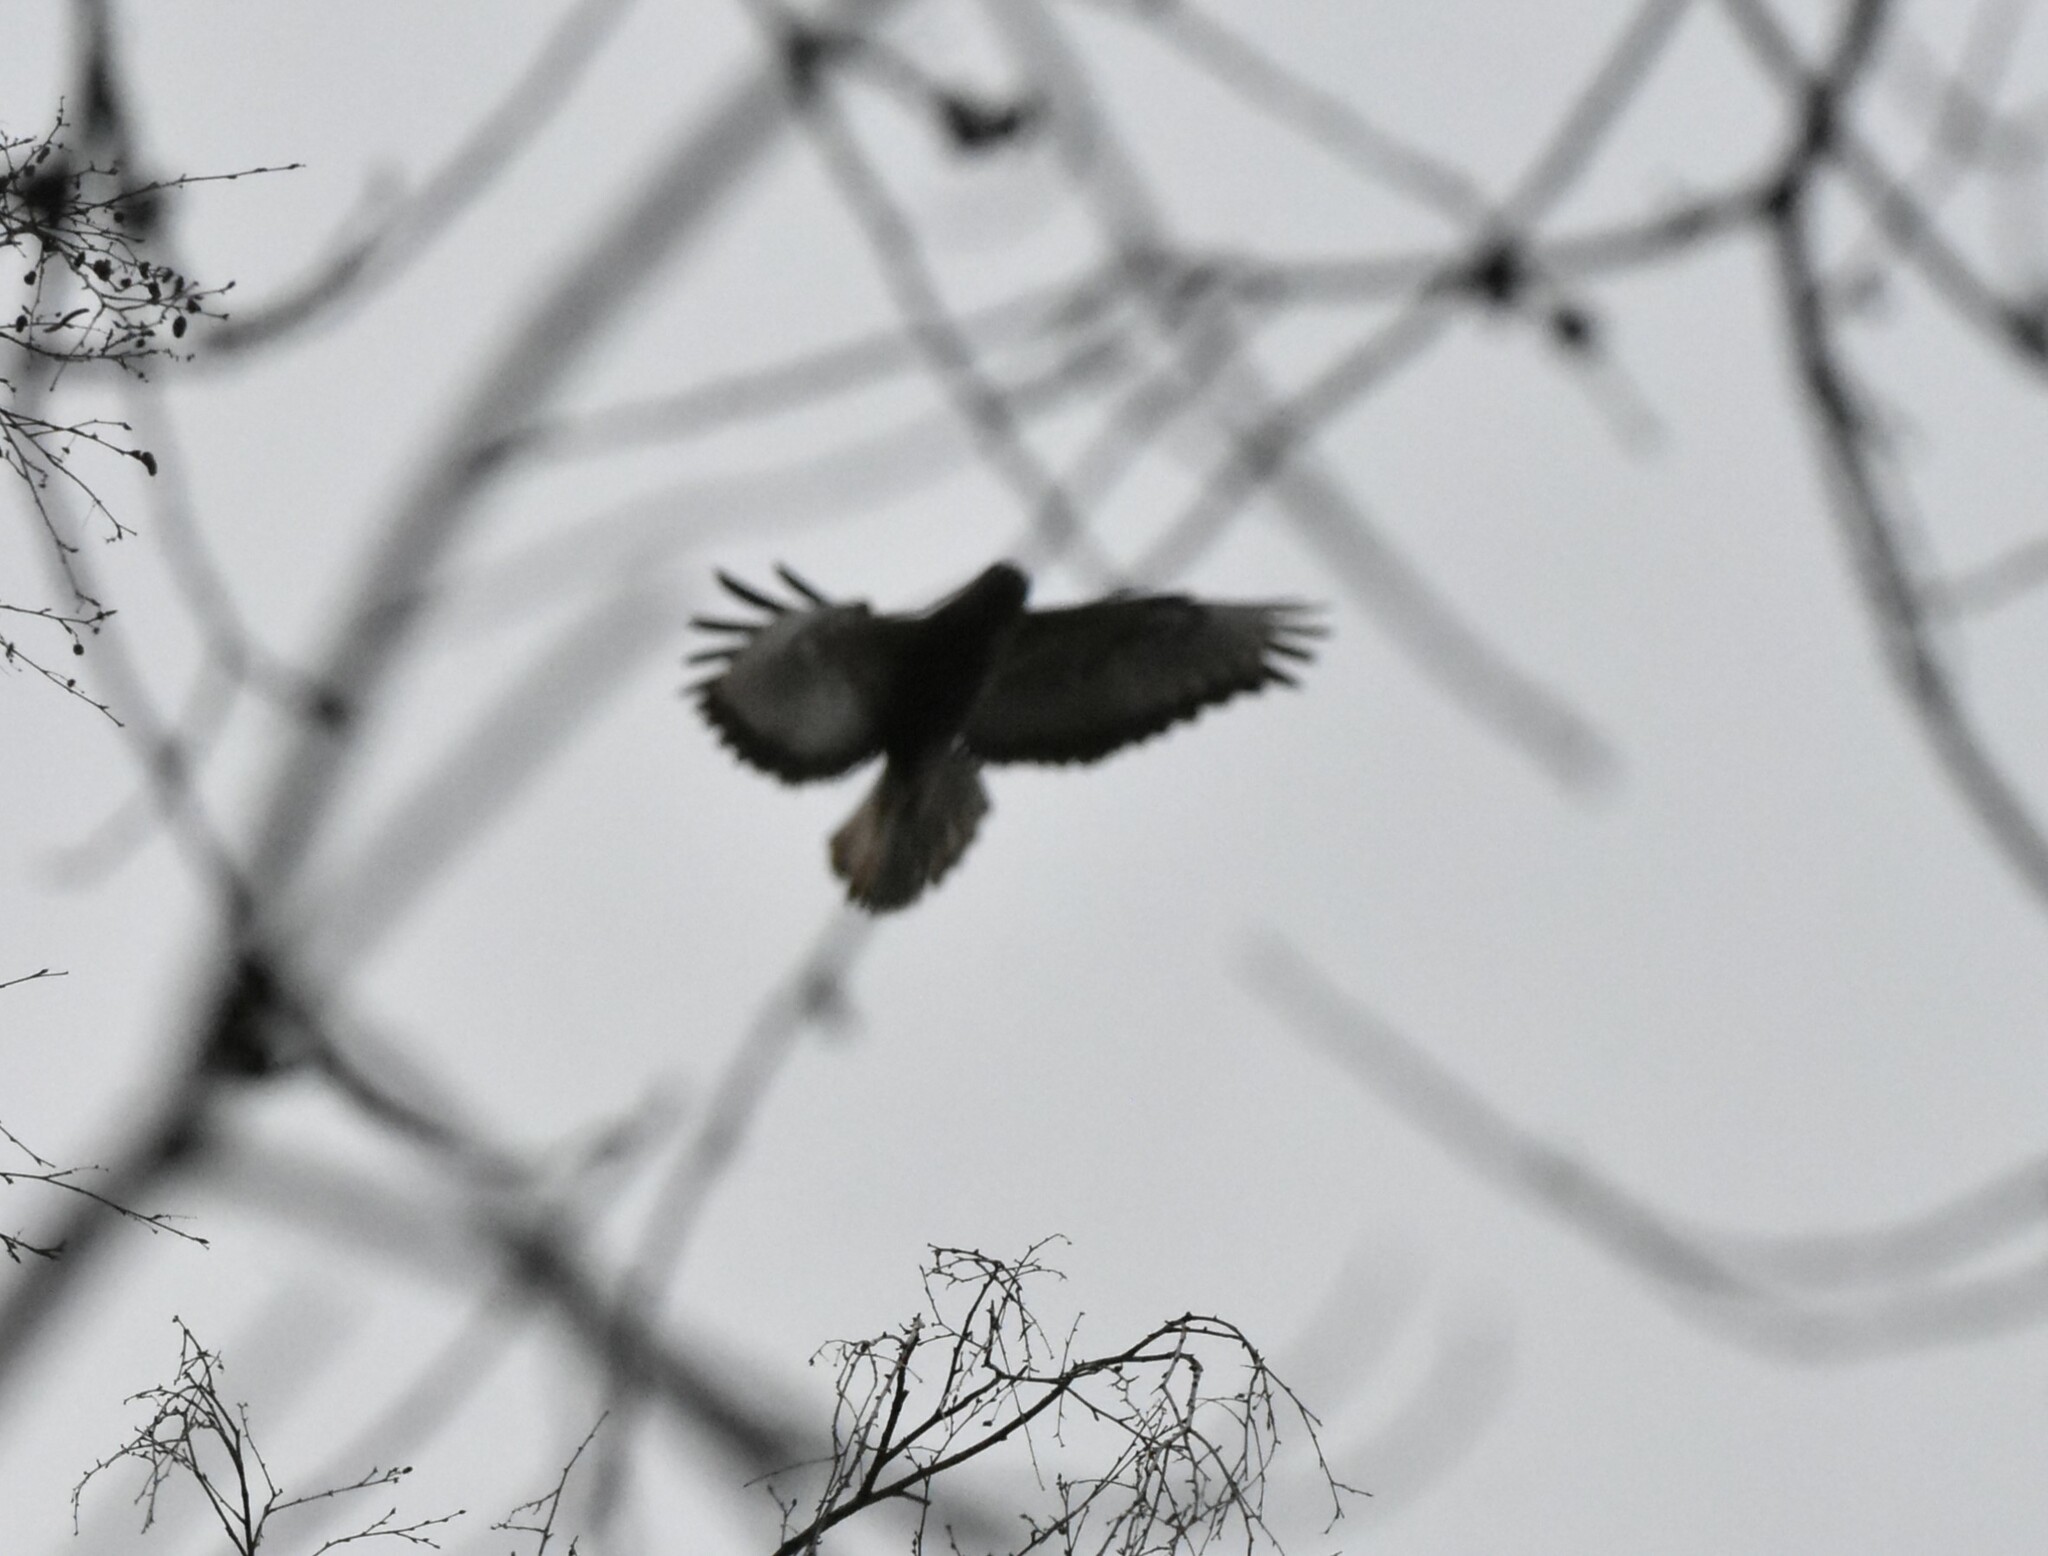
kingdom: Animalia
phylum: Chordata
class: Aves
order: Accipitriformes
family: Accipitridae
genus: Buteo
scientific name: Buteo buteo
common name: Common buzzard
